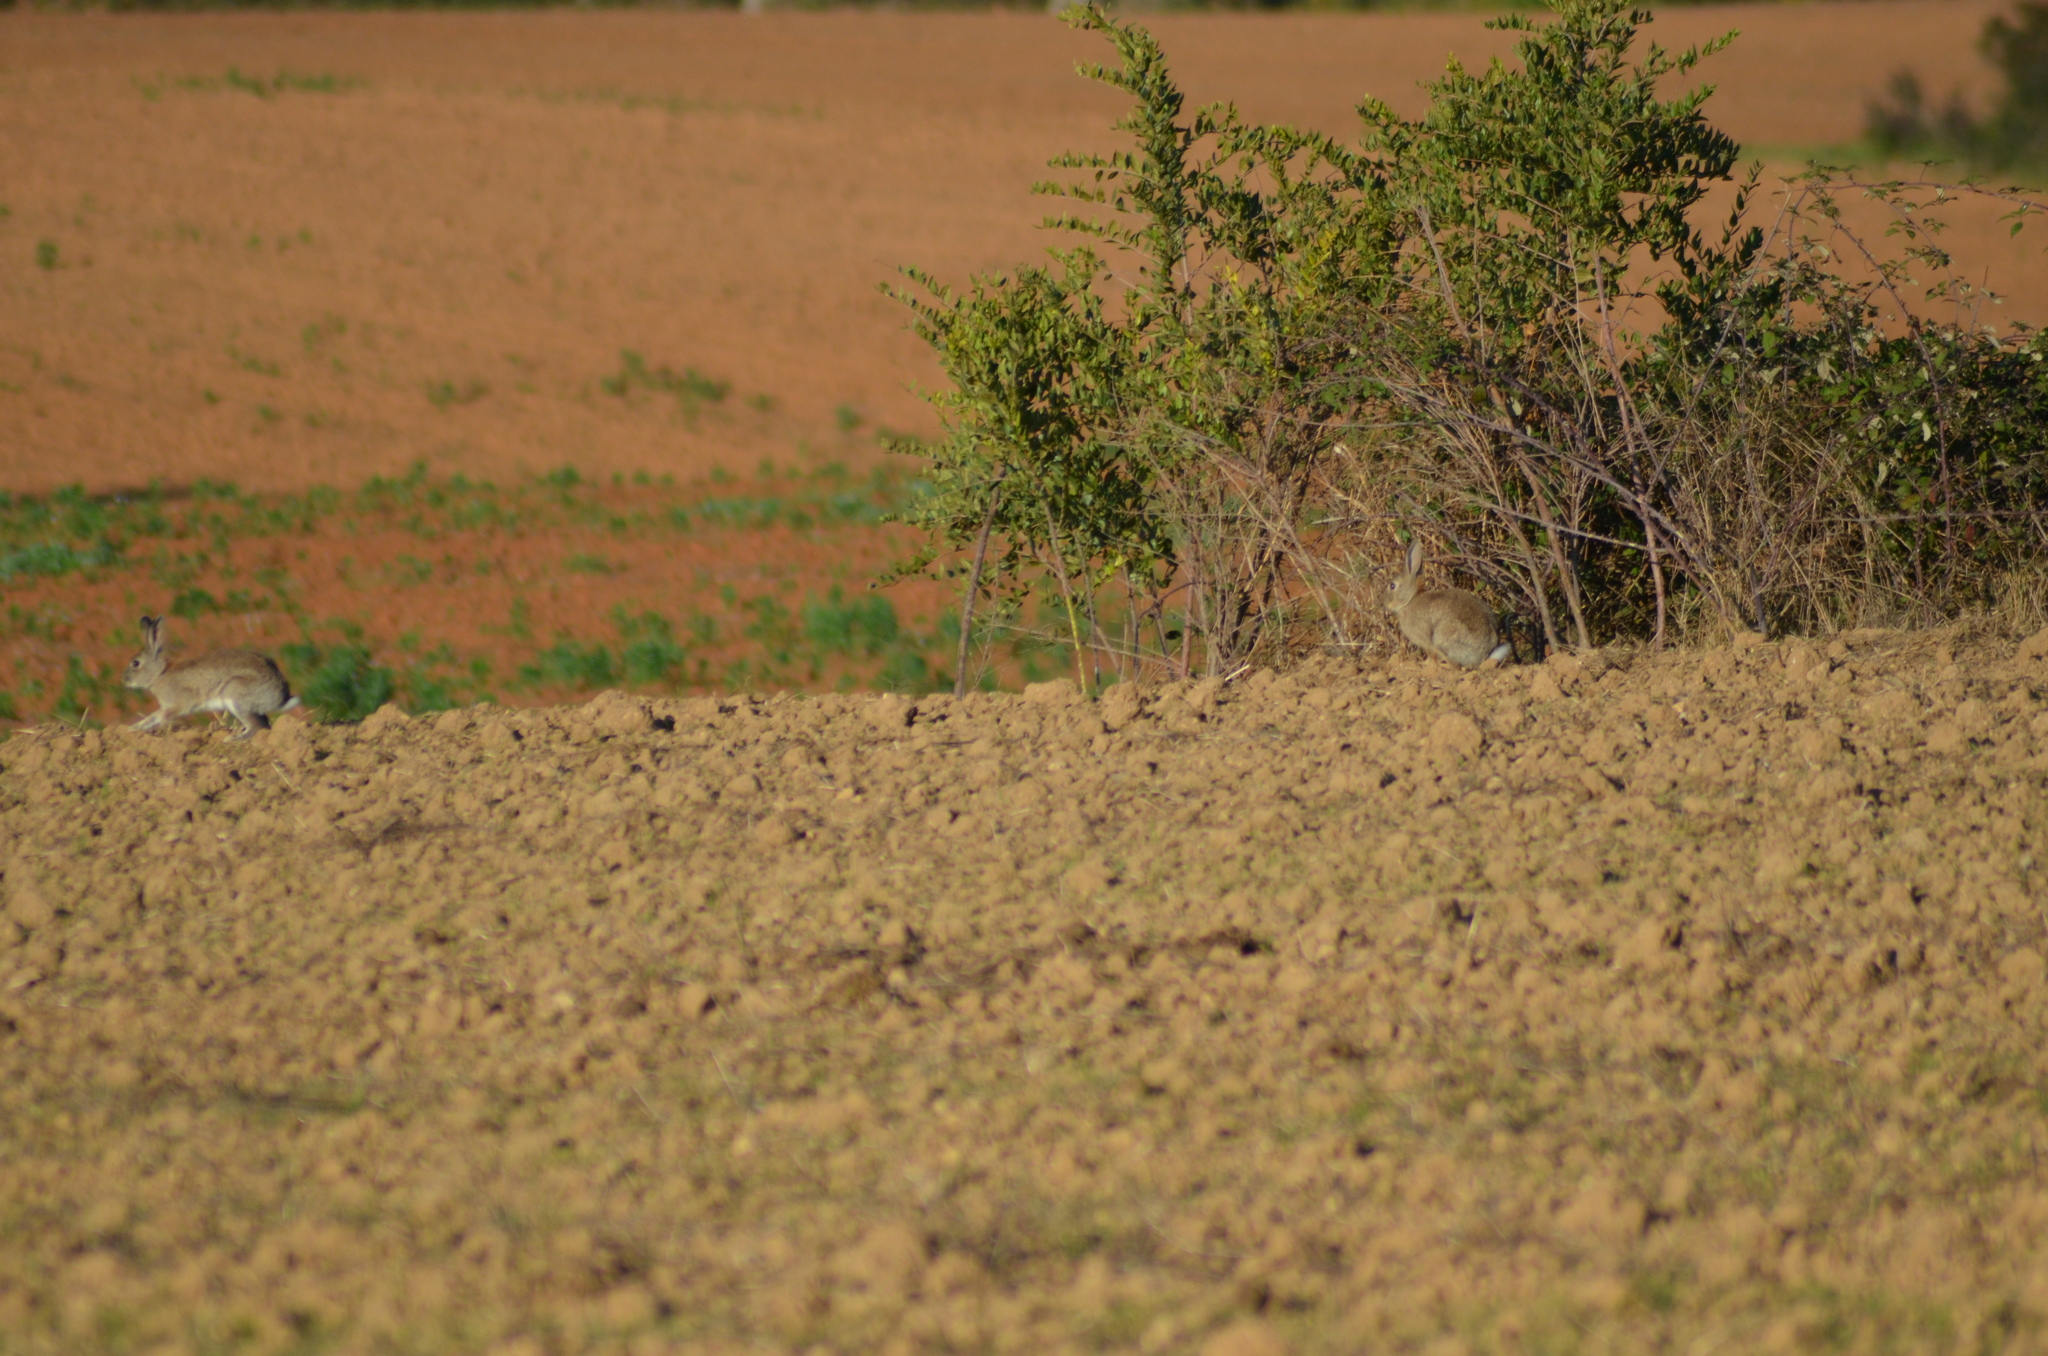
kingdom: Animalia
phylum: Chordata
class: Mammalia
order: Lagomorpha
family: Leporidae
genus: Oryctolagus
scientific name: Oryctolagus cuniculus
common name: European rabbit
